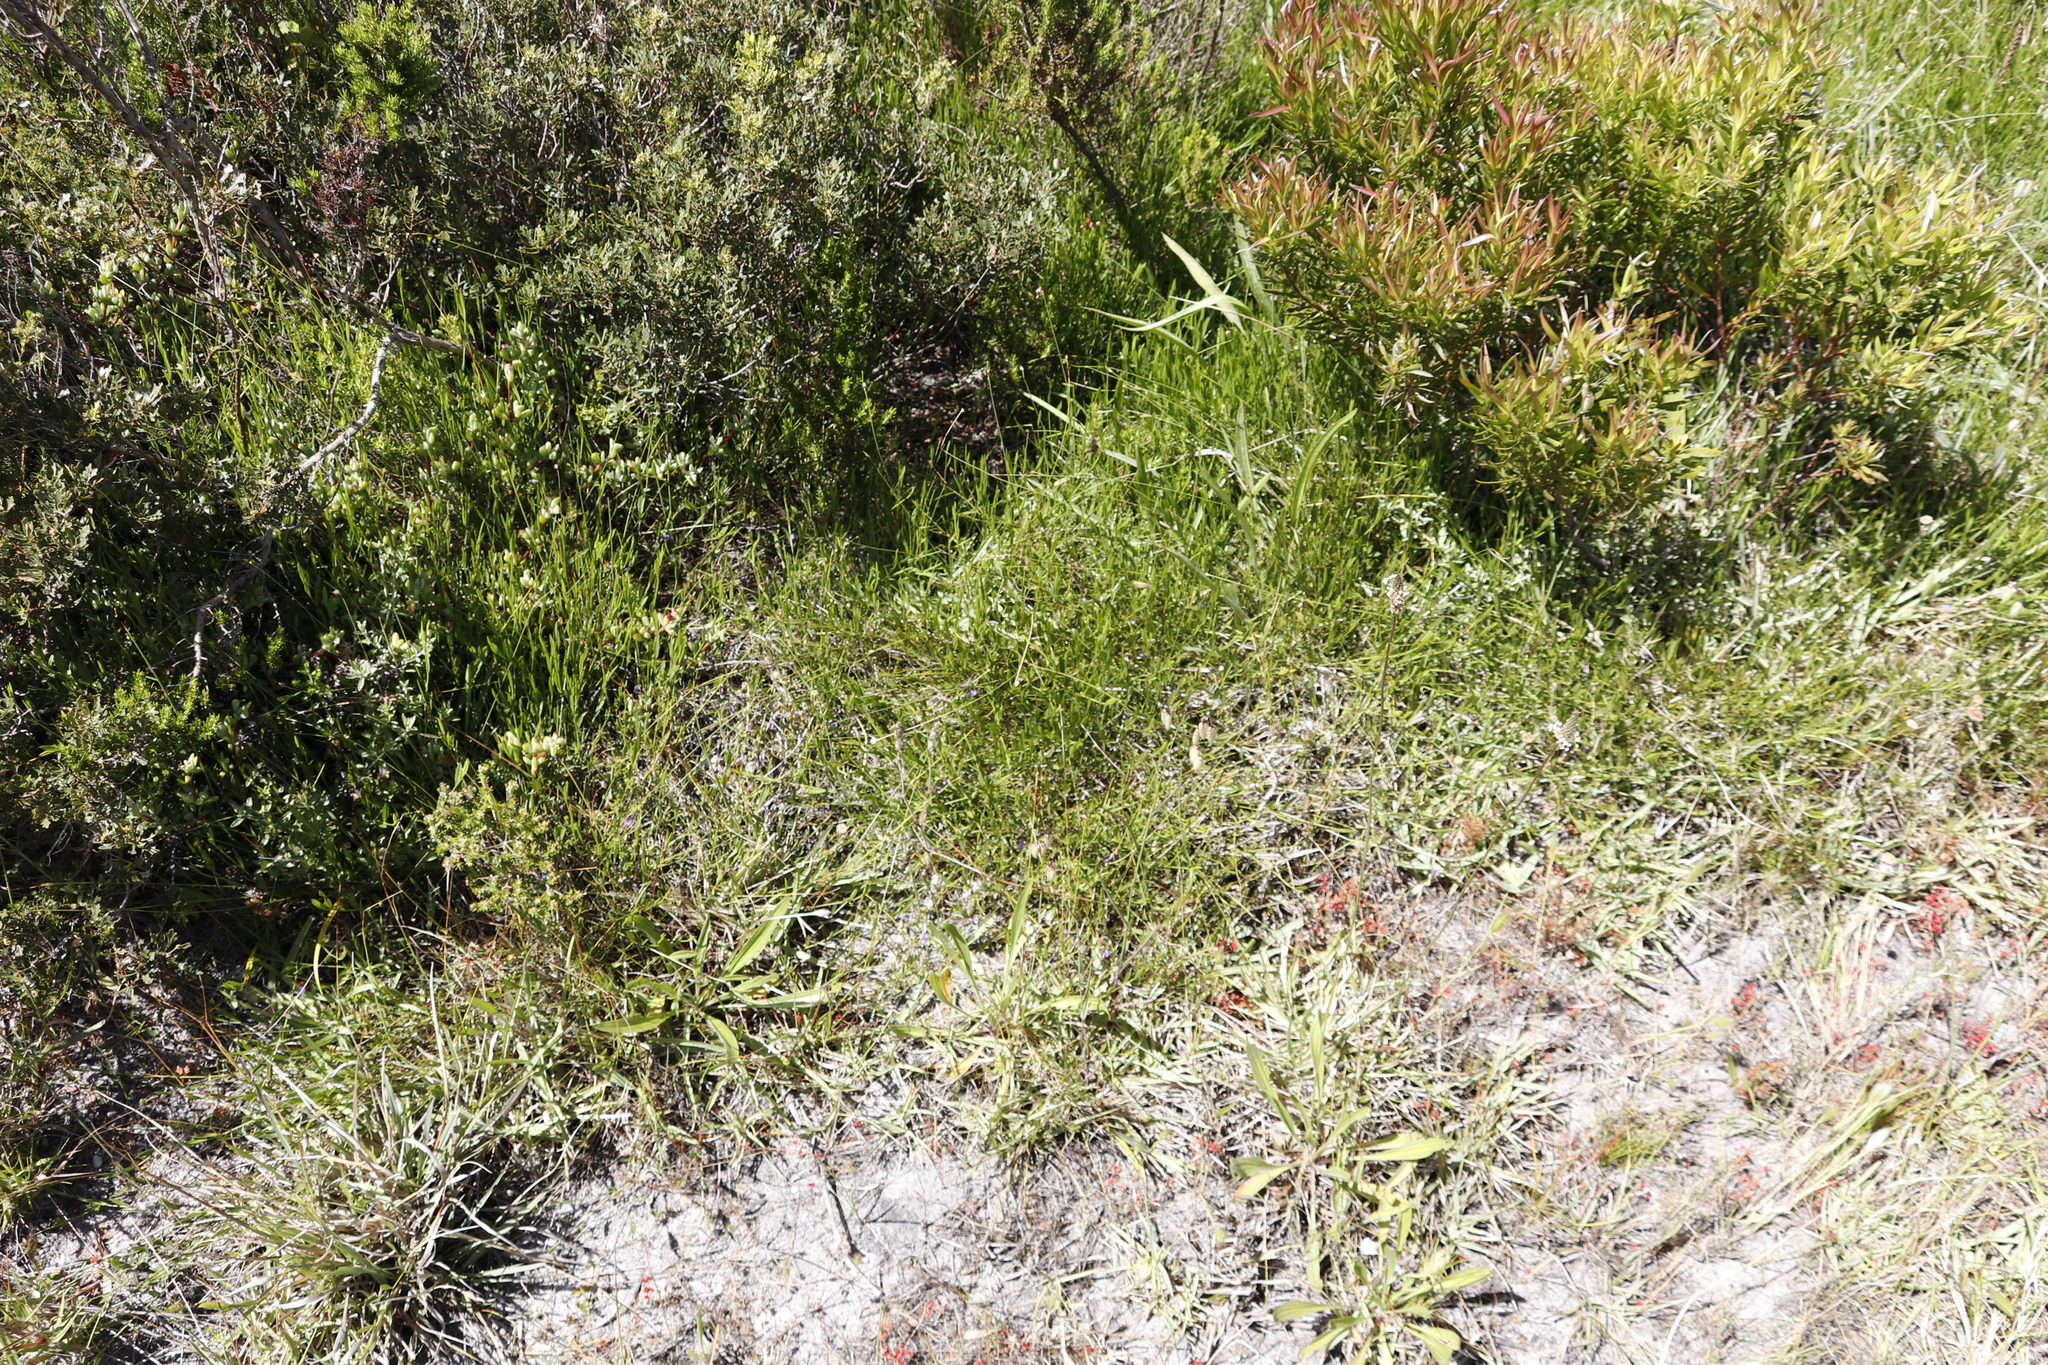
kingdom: Plantae
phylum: Tracheophyta
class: Magnoliopsida
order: Fabales
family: Fabaceae
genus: Psoralea
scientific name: Psoralea laxa
